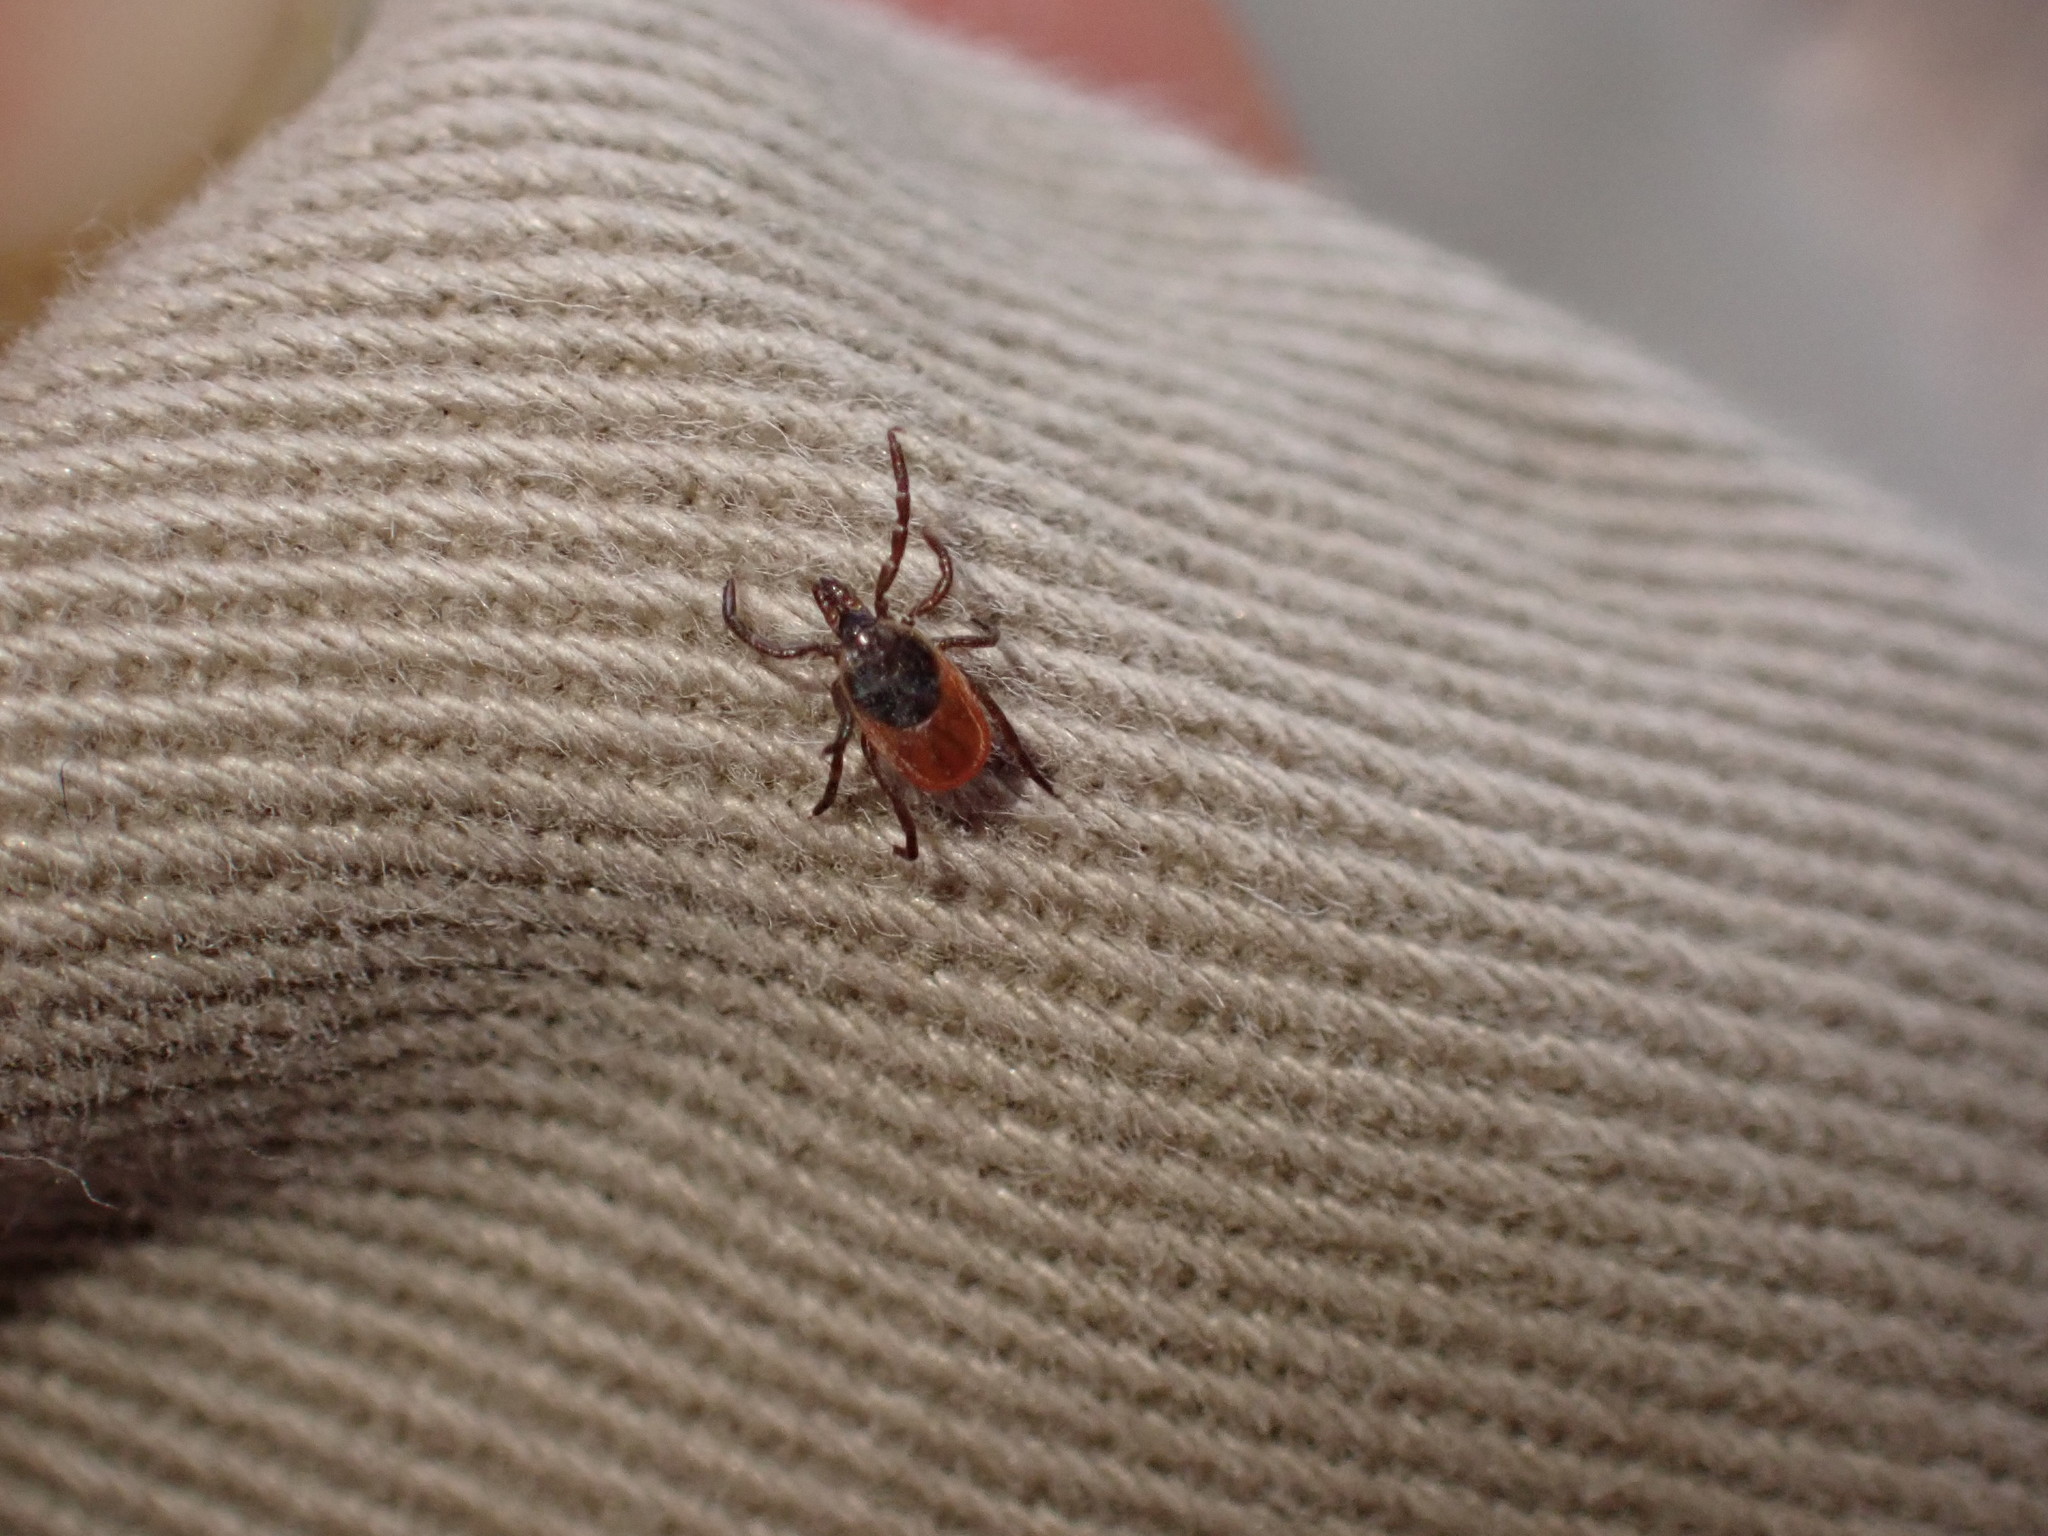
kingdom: Animalia
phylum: Arthropoda
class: Arachnida
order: Ixodida
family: Ixodidae
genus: Ixodes
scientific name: Ixodes scapularis
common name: Black legged tick
